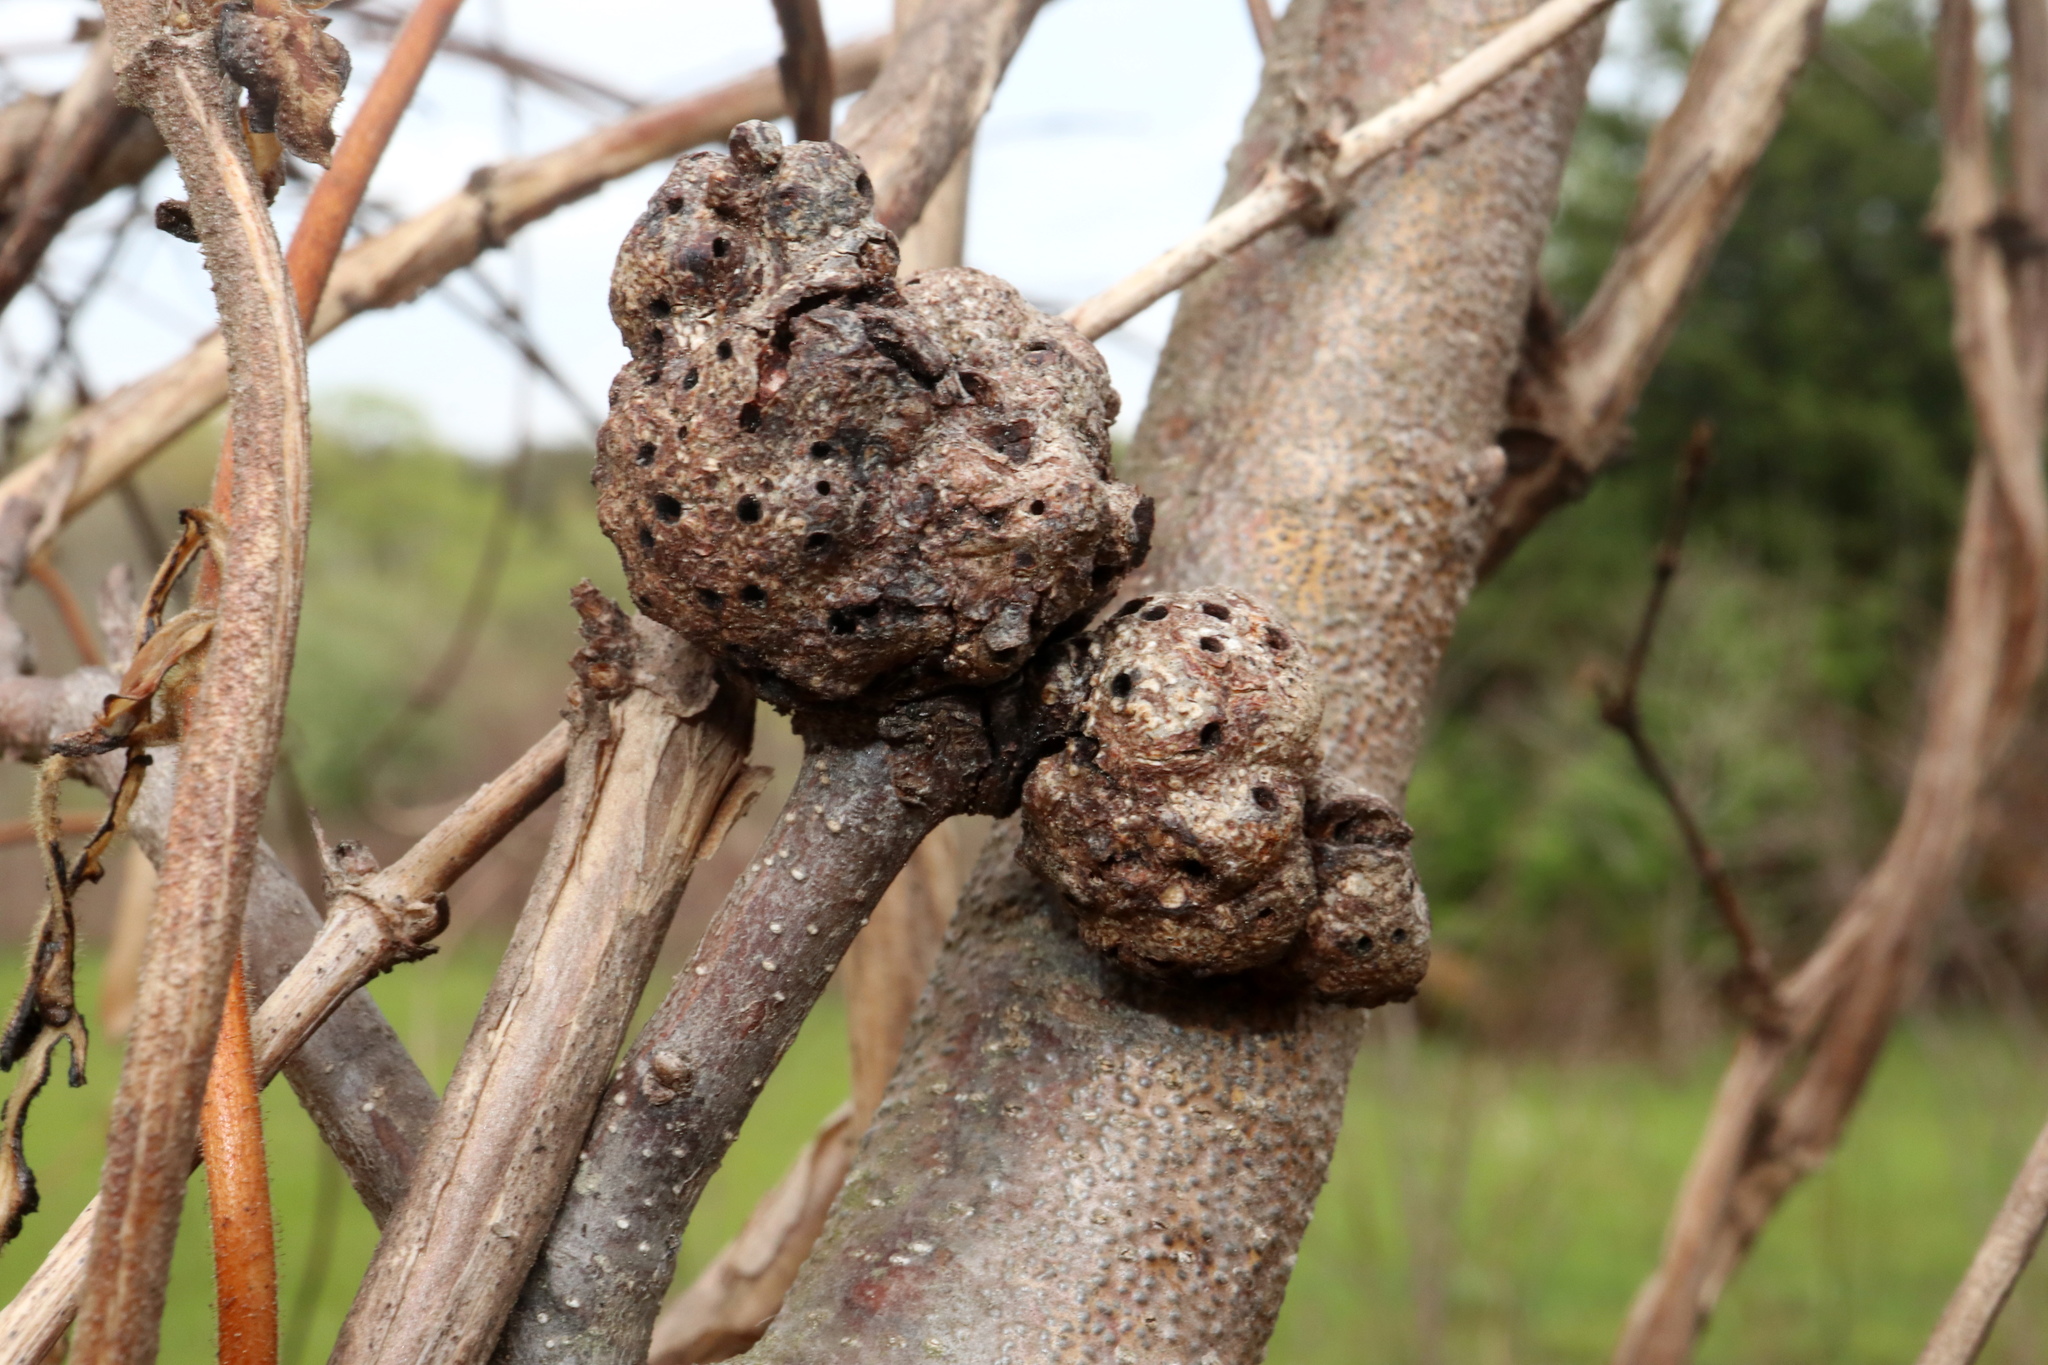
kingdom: Animalia
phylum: Arthropoda
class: Insecta
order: Hymenoptera
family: Cynipidae
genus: Callirhytis
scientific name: Callirhytis
